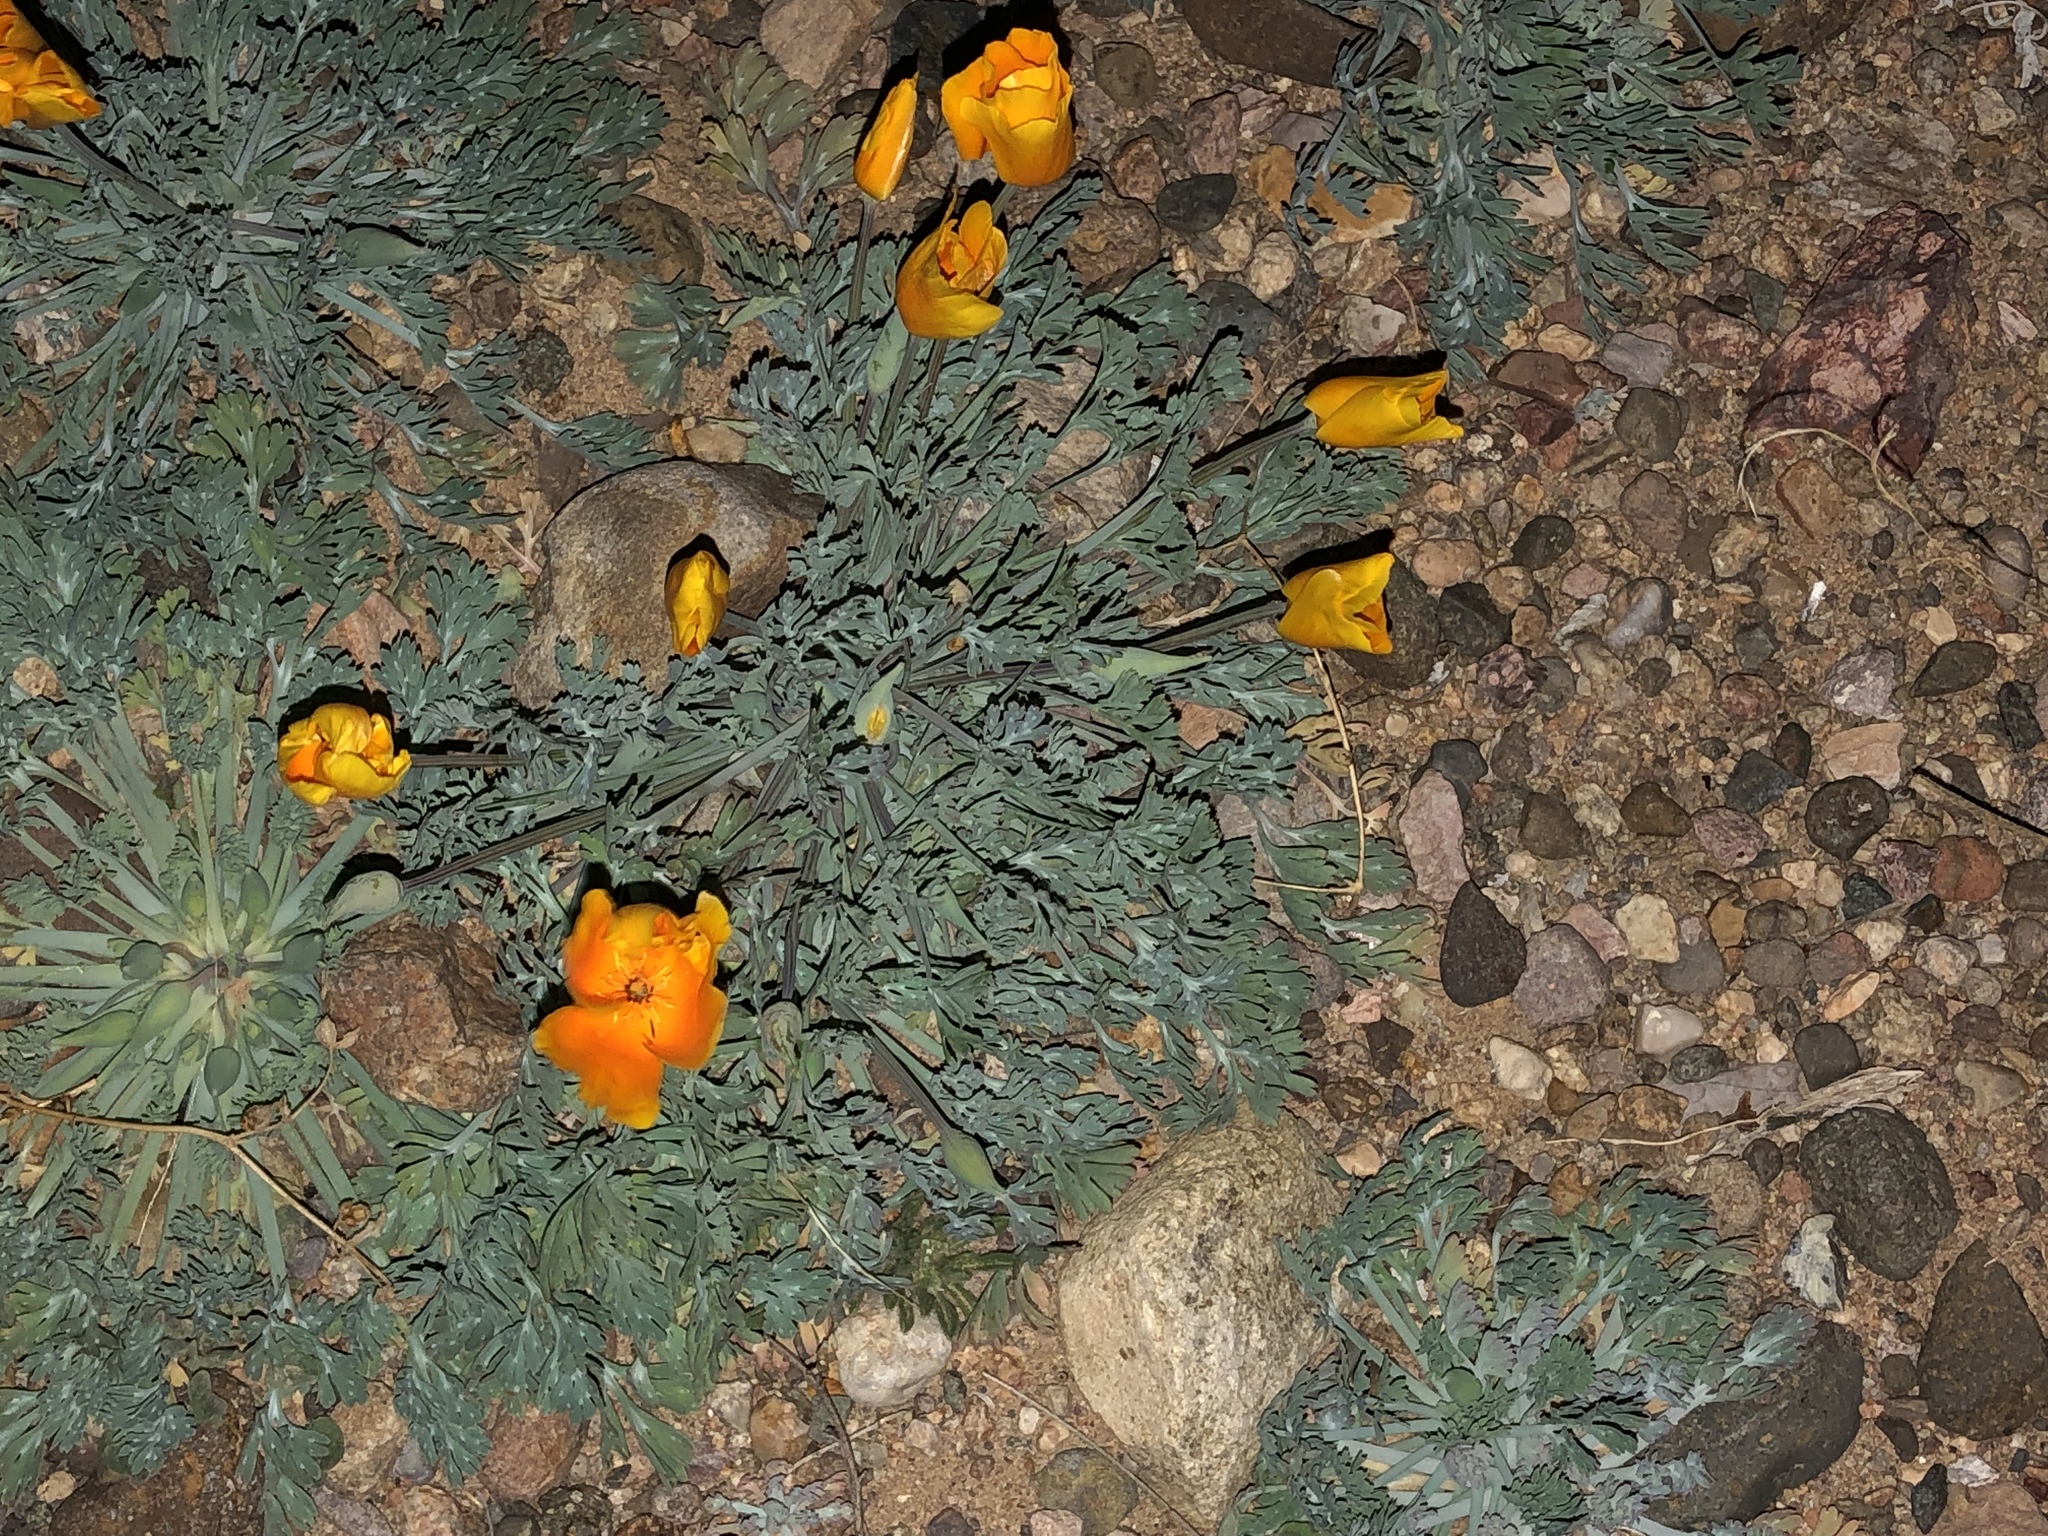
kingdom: Plantae
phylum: Tracheophyta
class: Magnoliopsida
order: Ranunculales
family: Papaveraceae
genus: Eschscholzia
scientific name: Eschscholzia californica
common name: California poppy
